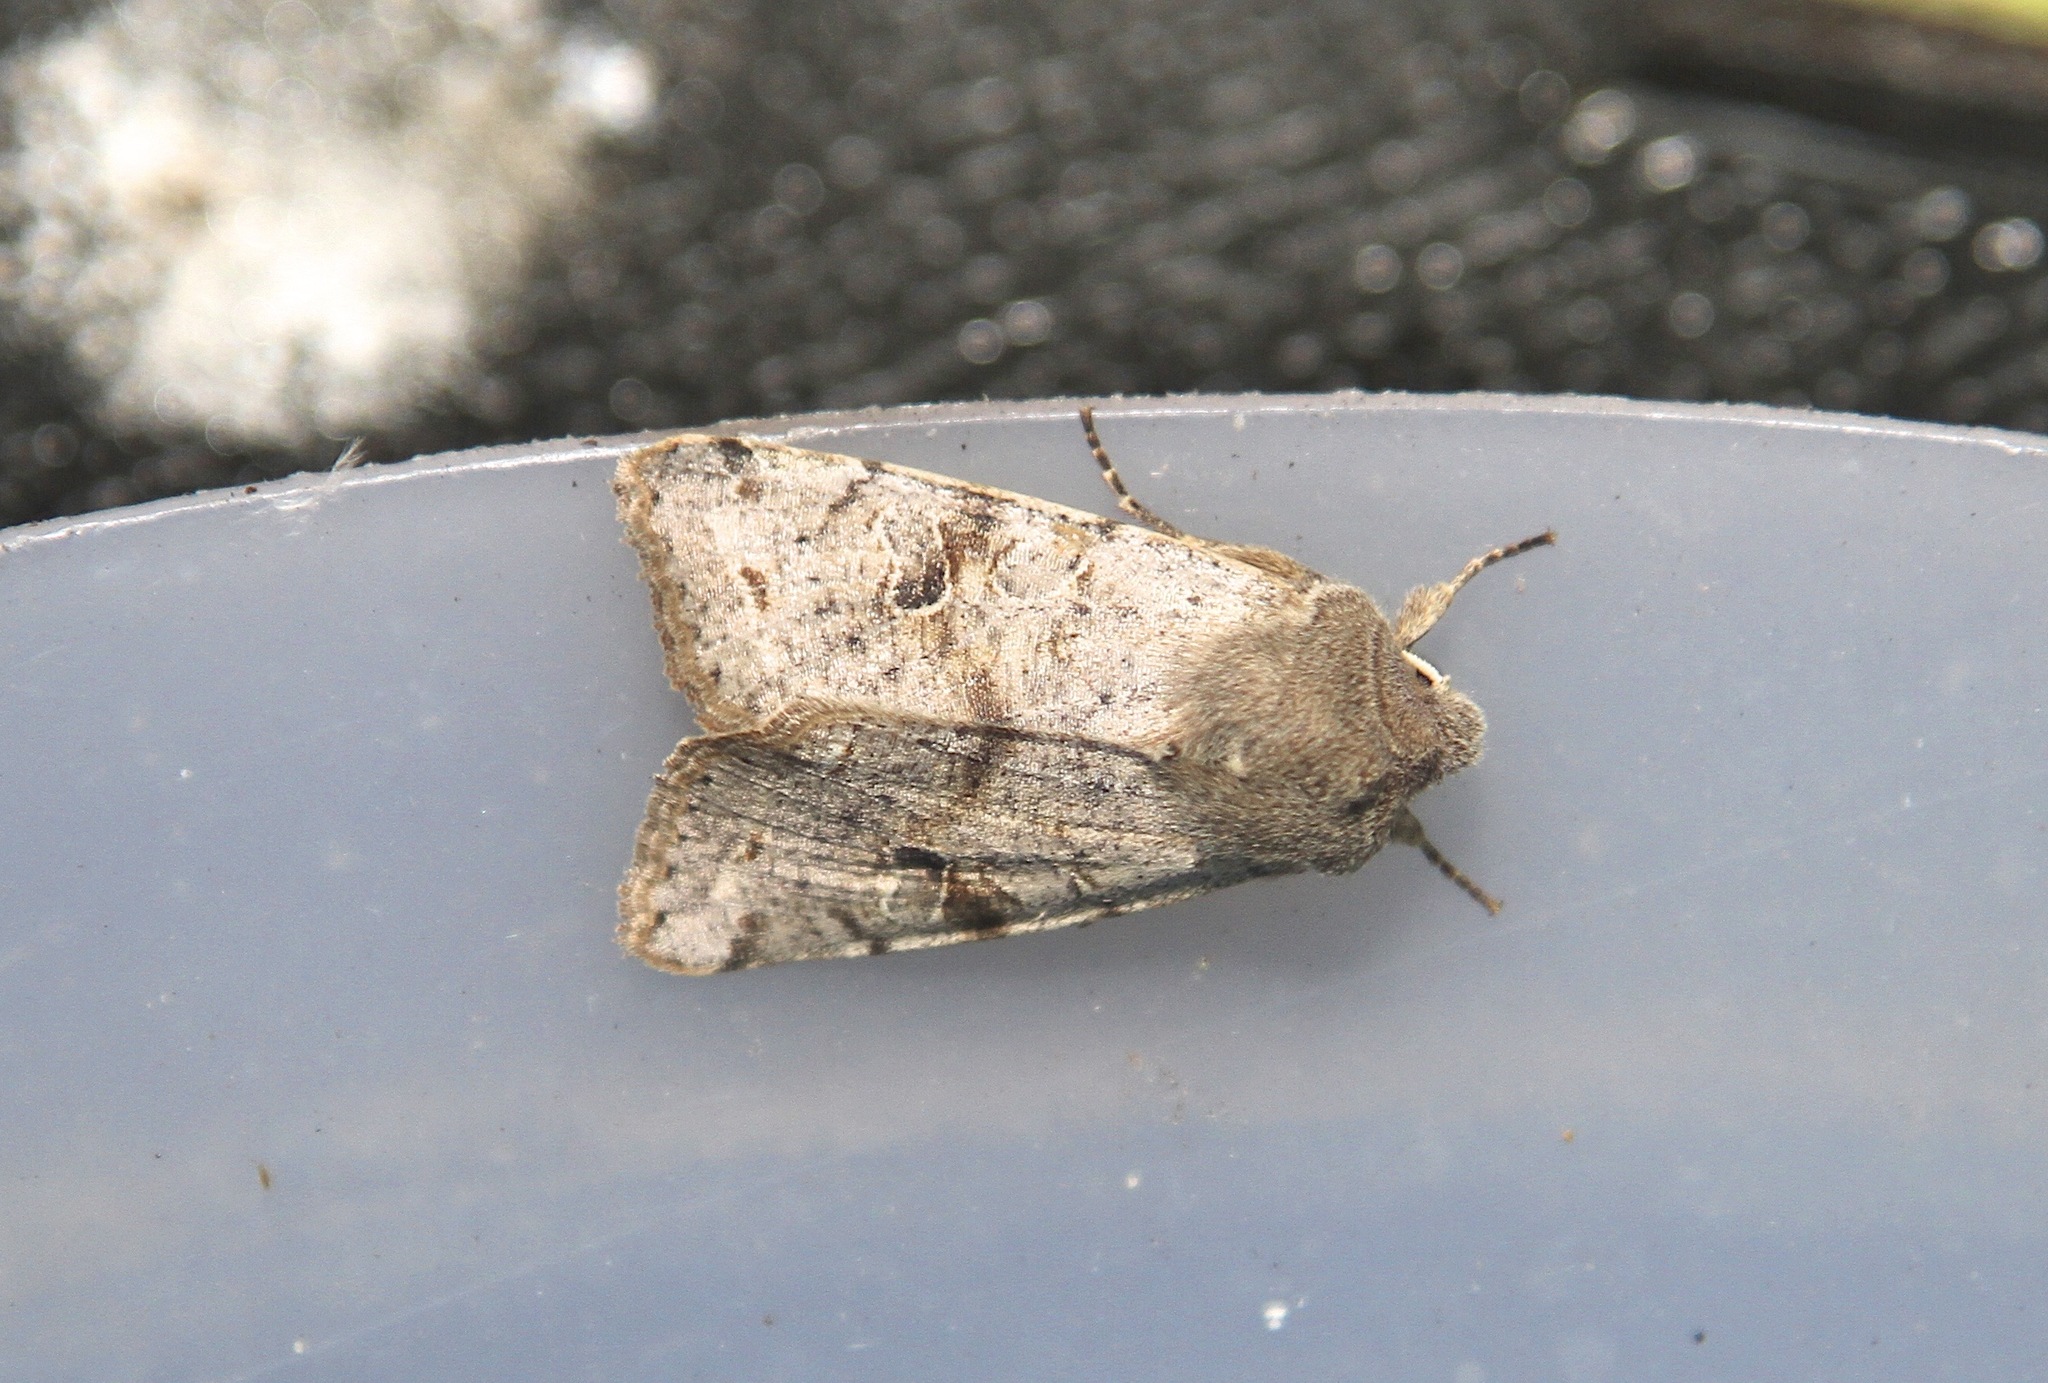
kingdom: Animalia
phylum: Arthropoda
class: Insecta
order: Lepidoptera
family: Noctuidae
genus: Orthosia
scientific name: Orthosia incerta
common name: Clouded drab
